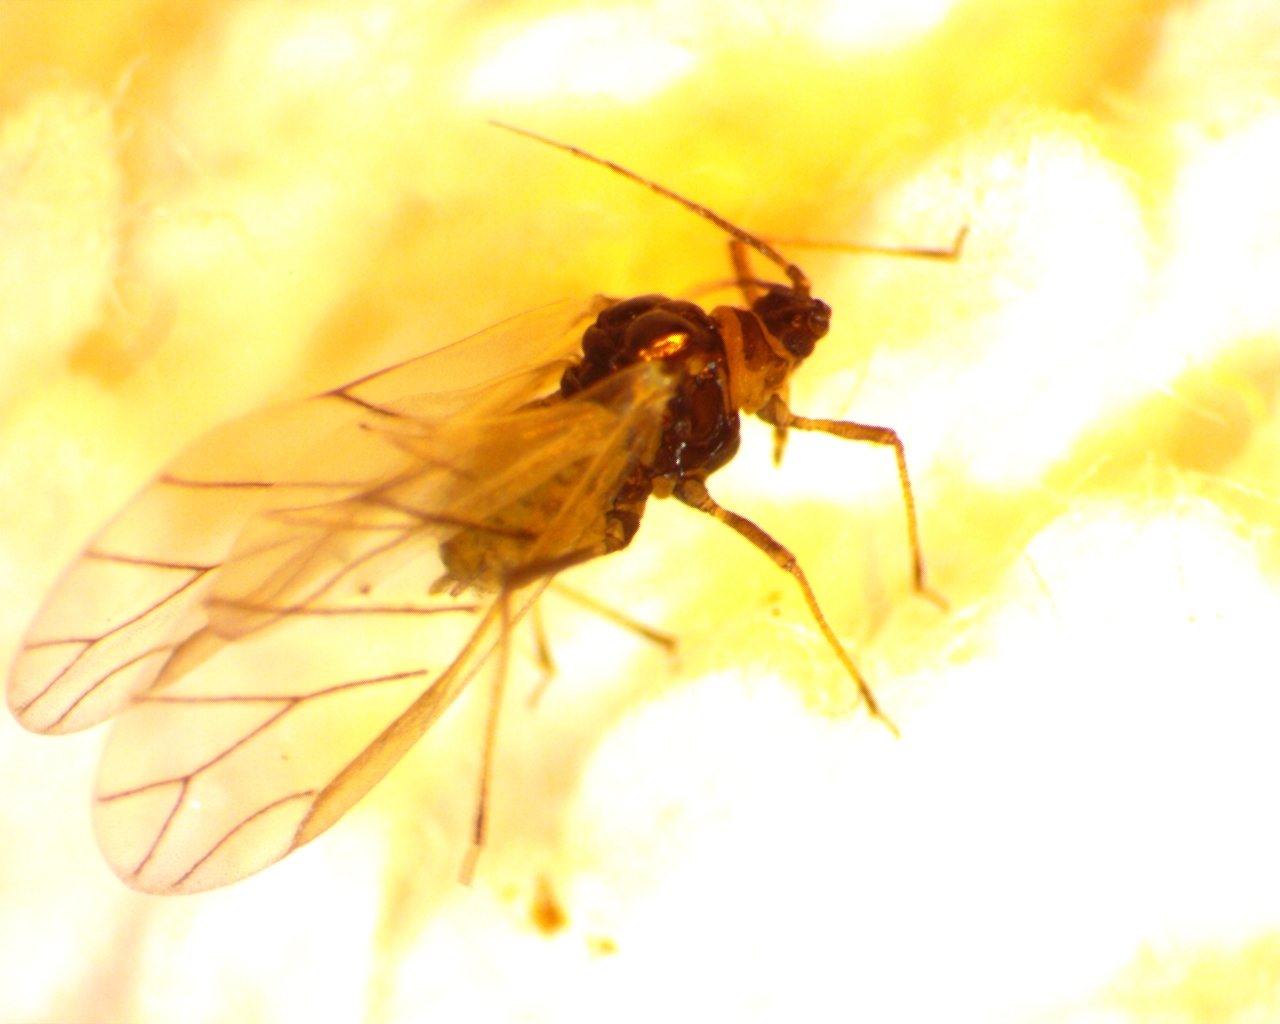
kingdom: Animalia
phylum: Arthropoda
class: Insecta
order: Hemiptera
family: Aphididae
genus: Lipaphis
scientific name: Lipaphis pseudobrassicae
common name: Turnip aphid
